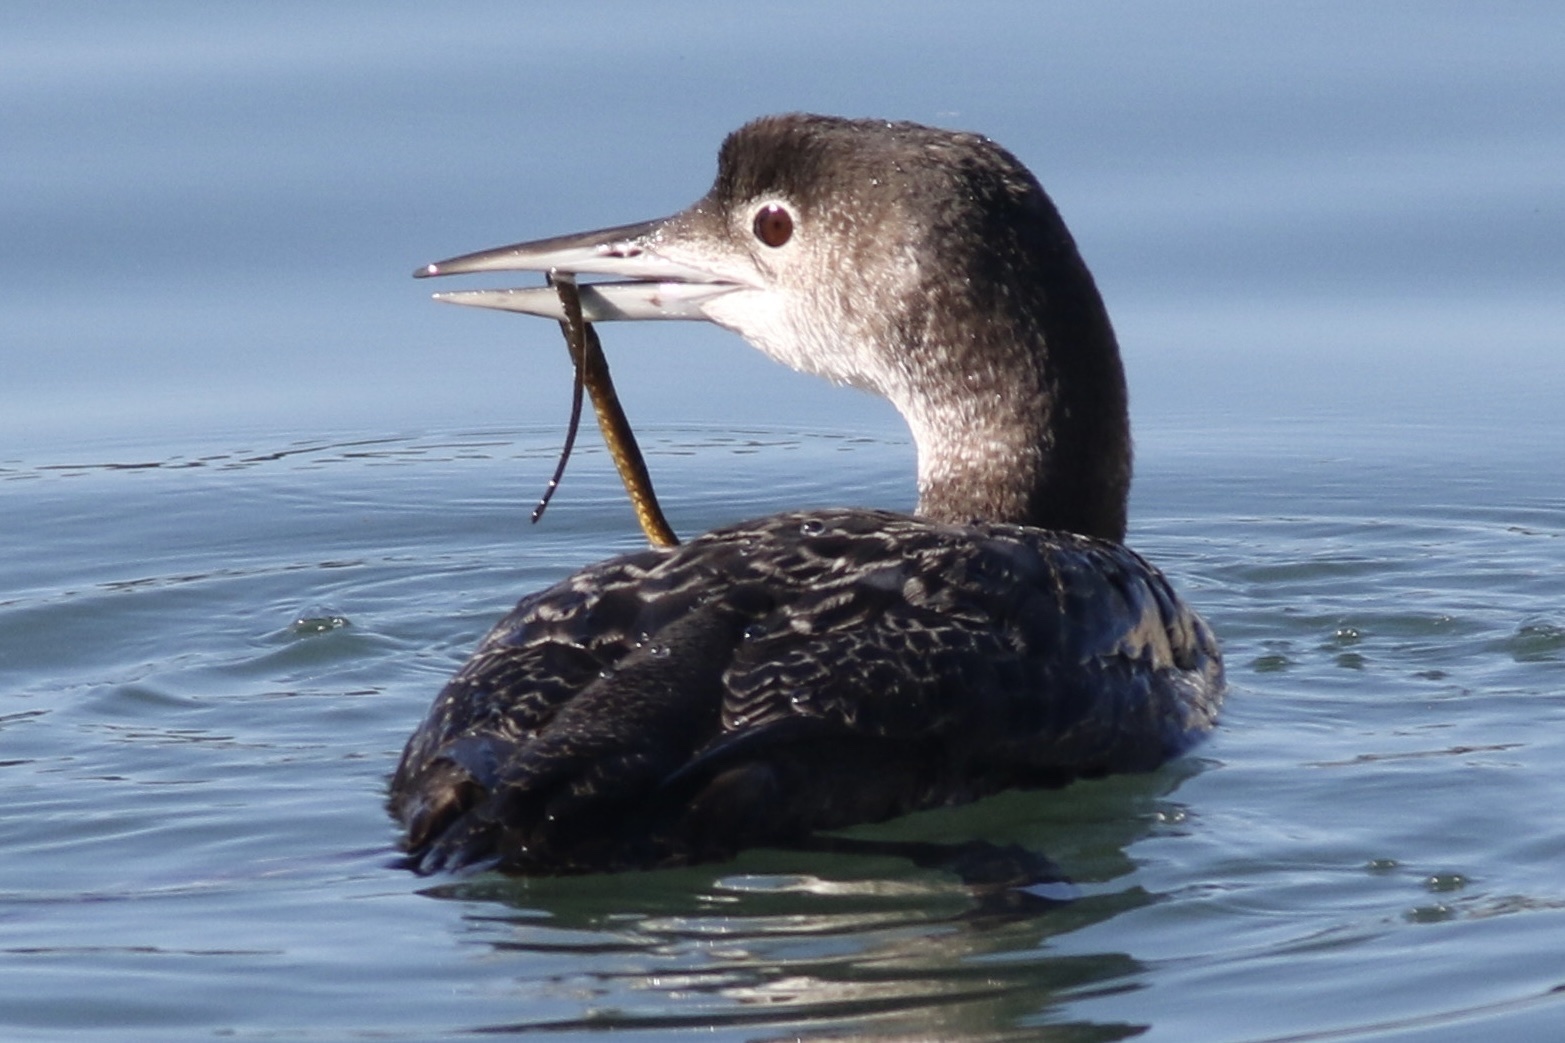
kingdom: Animalia
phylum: Chordata
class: Aves
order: Gaviiformes
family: Gaviidae
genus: Gavia
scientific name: Gavia immer
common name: Common loon
